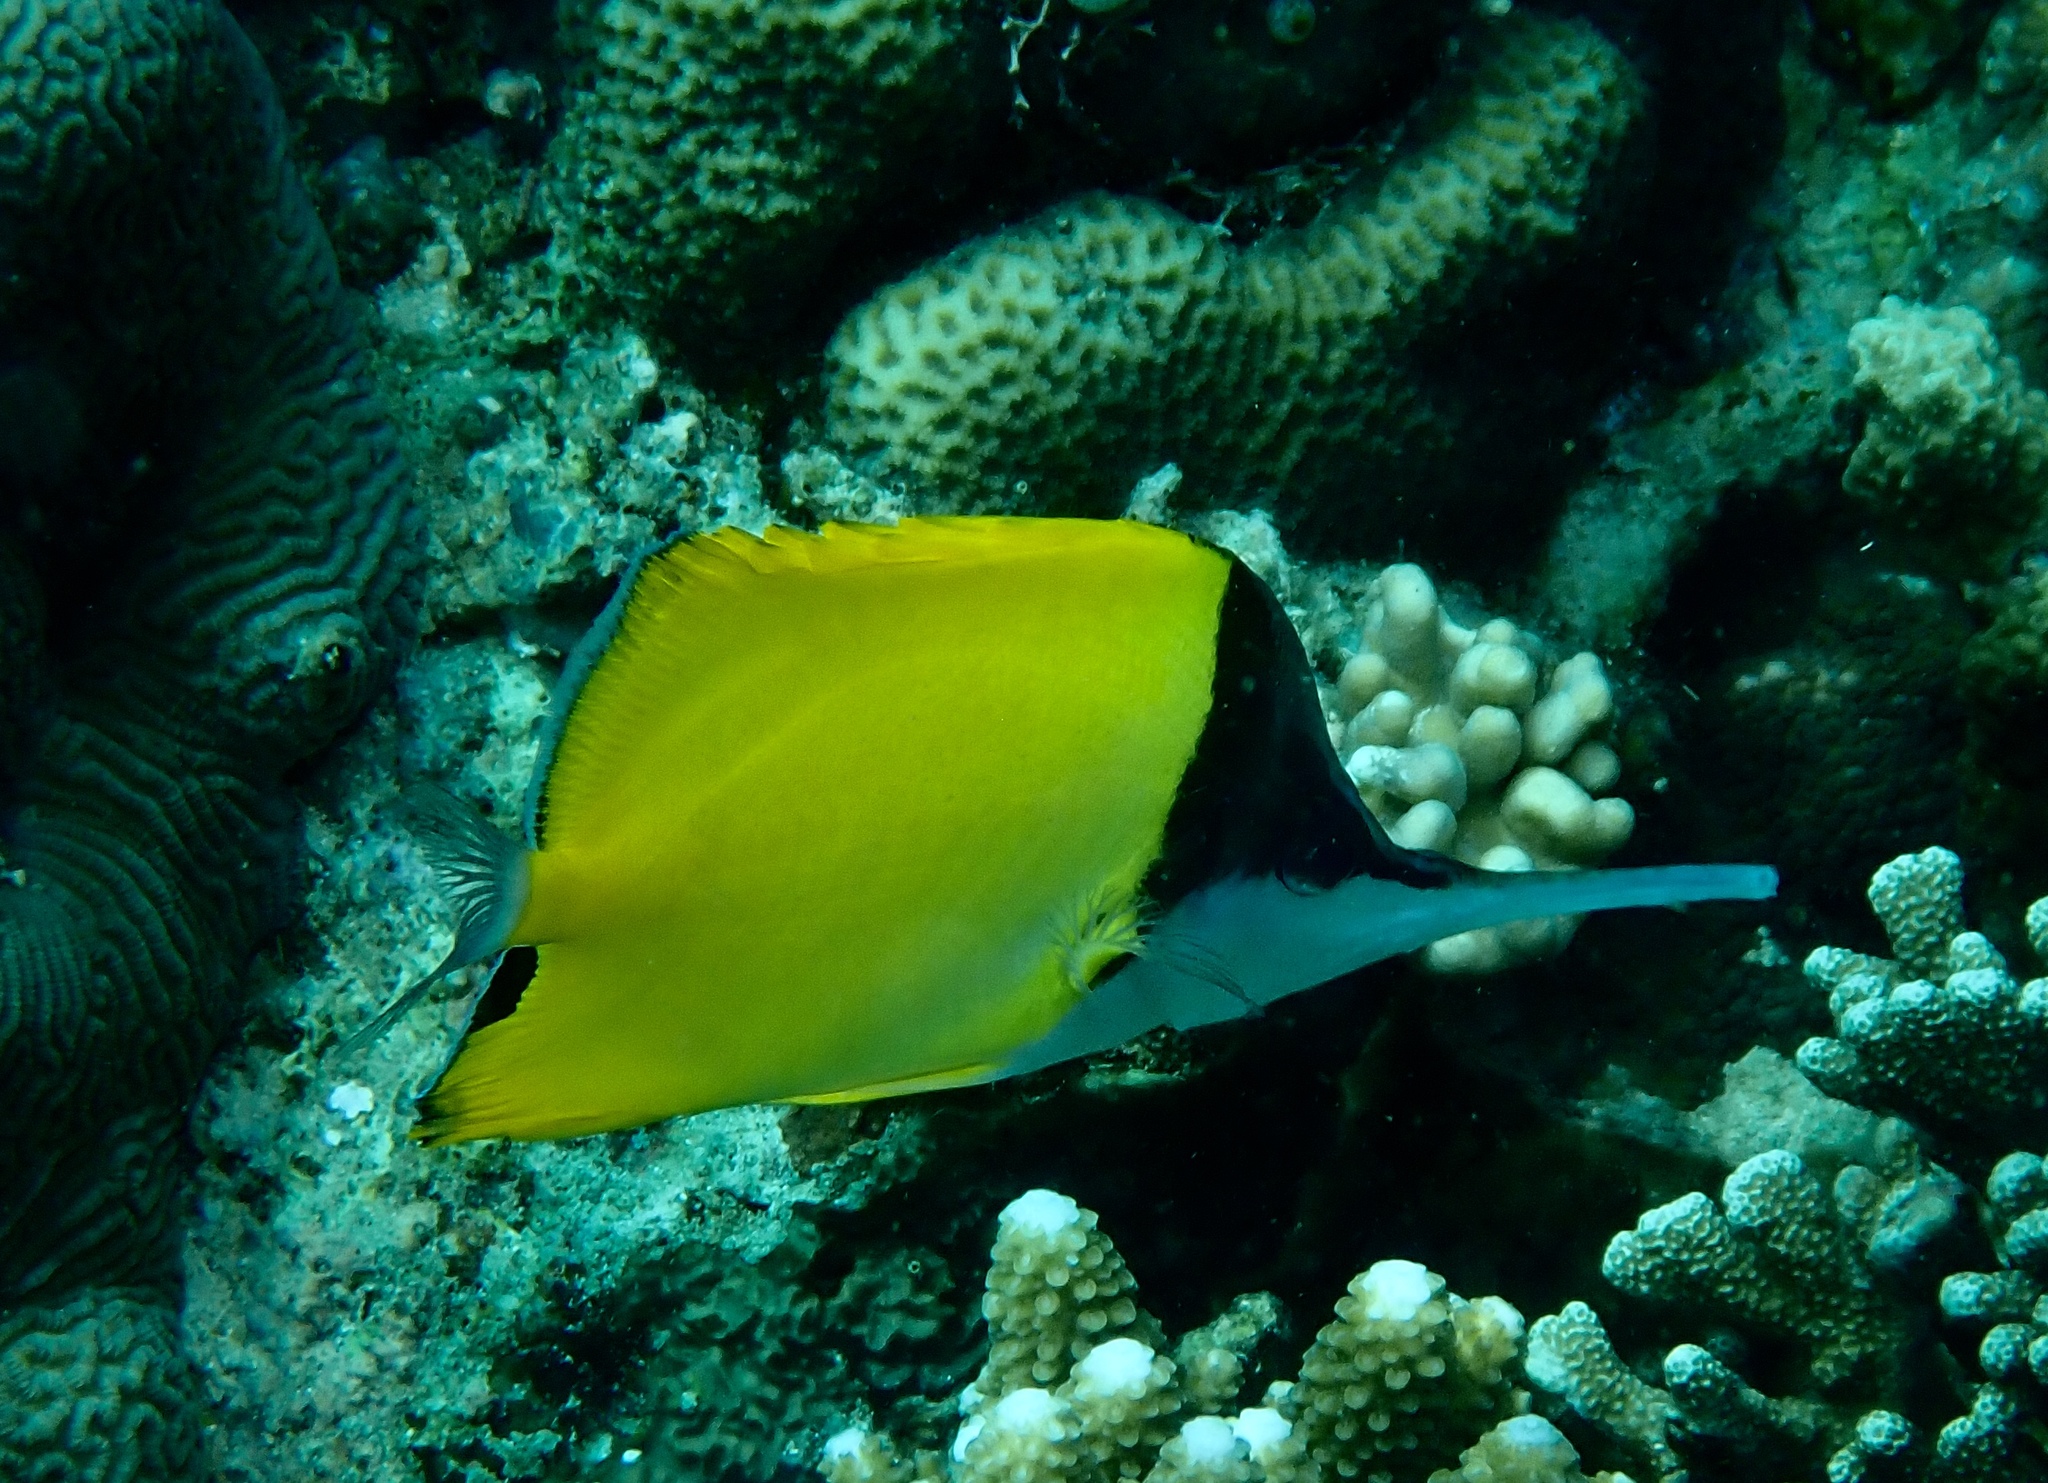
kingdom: Animalia
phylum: Chordata
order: Perciformes
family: Chaetodontidae
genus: Forcipiger
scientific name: Forcipiger longirostris
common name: Longnose butterflyfish
